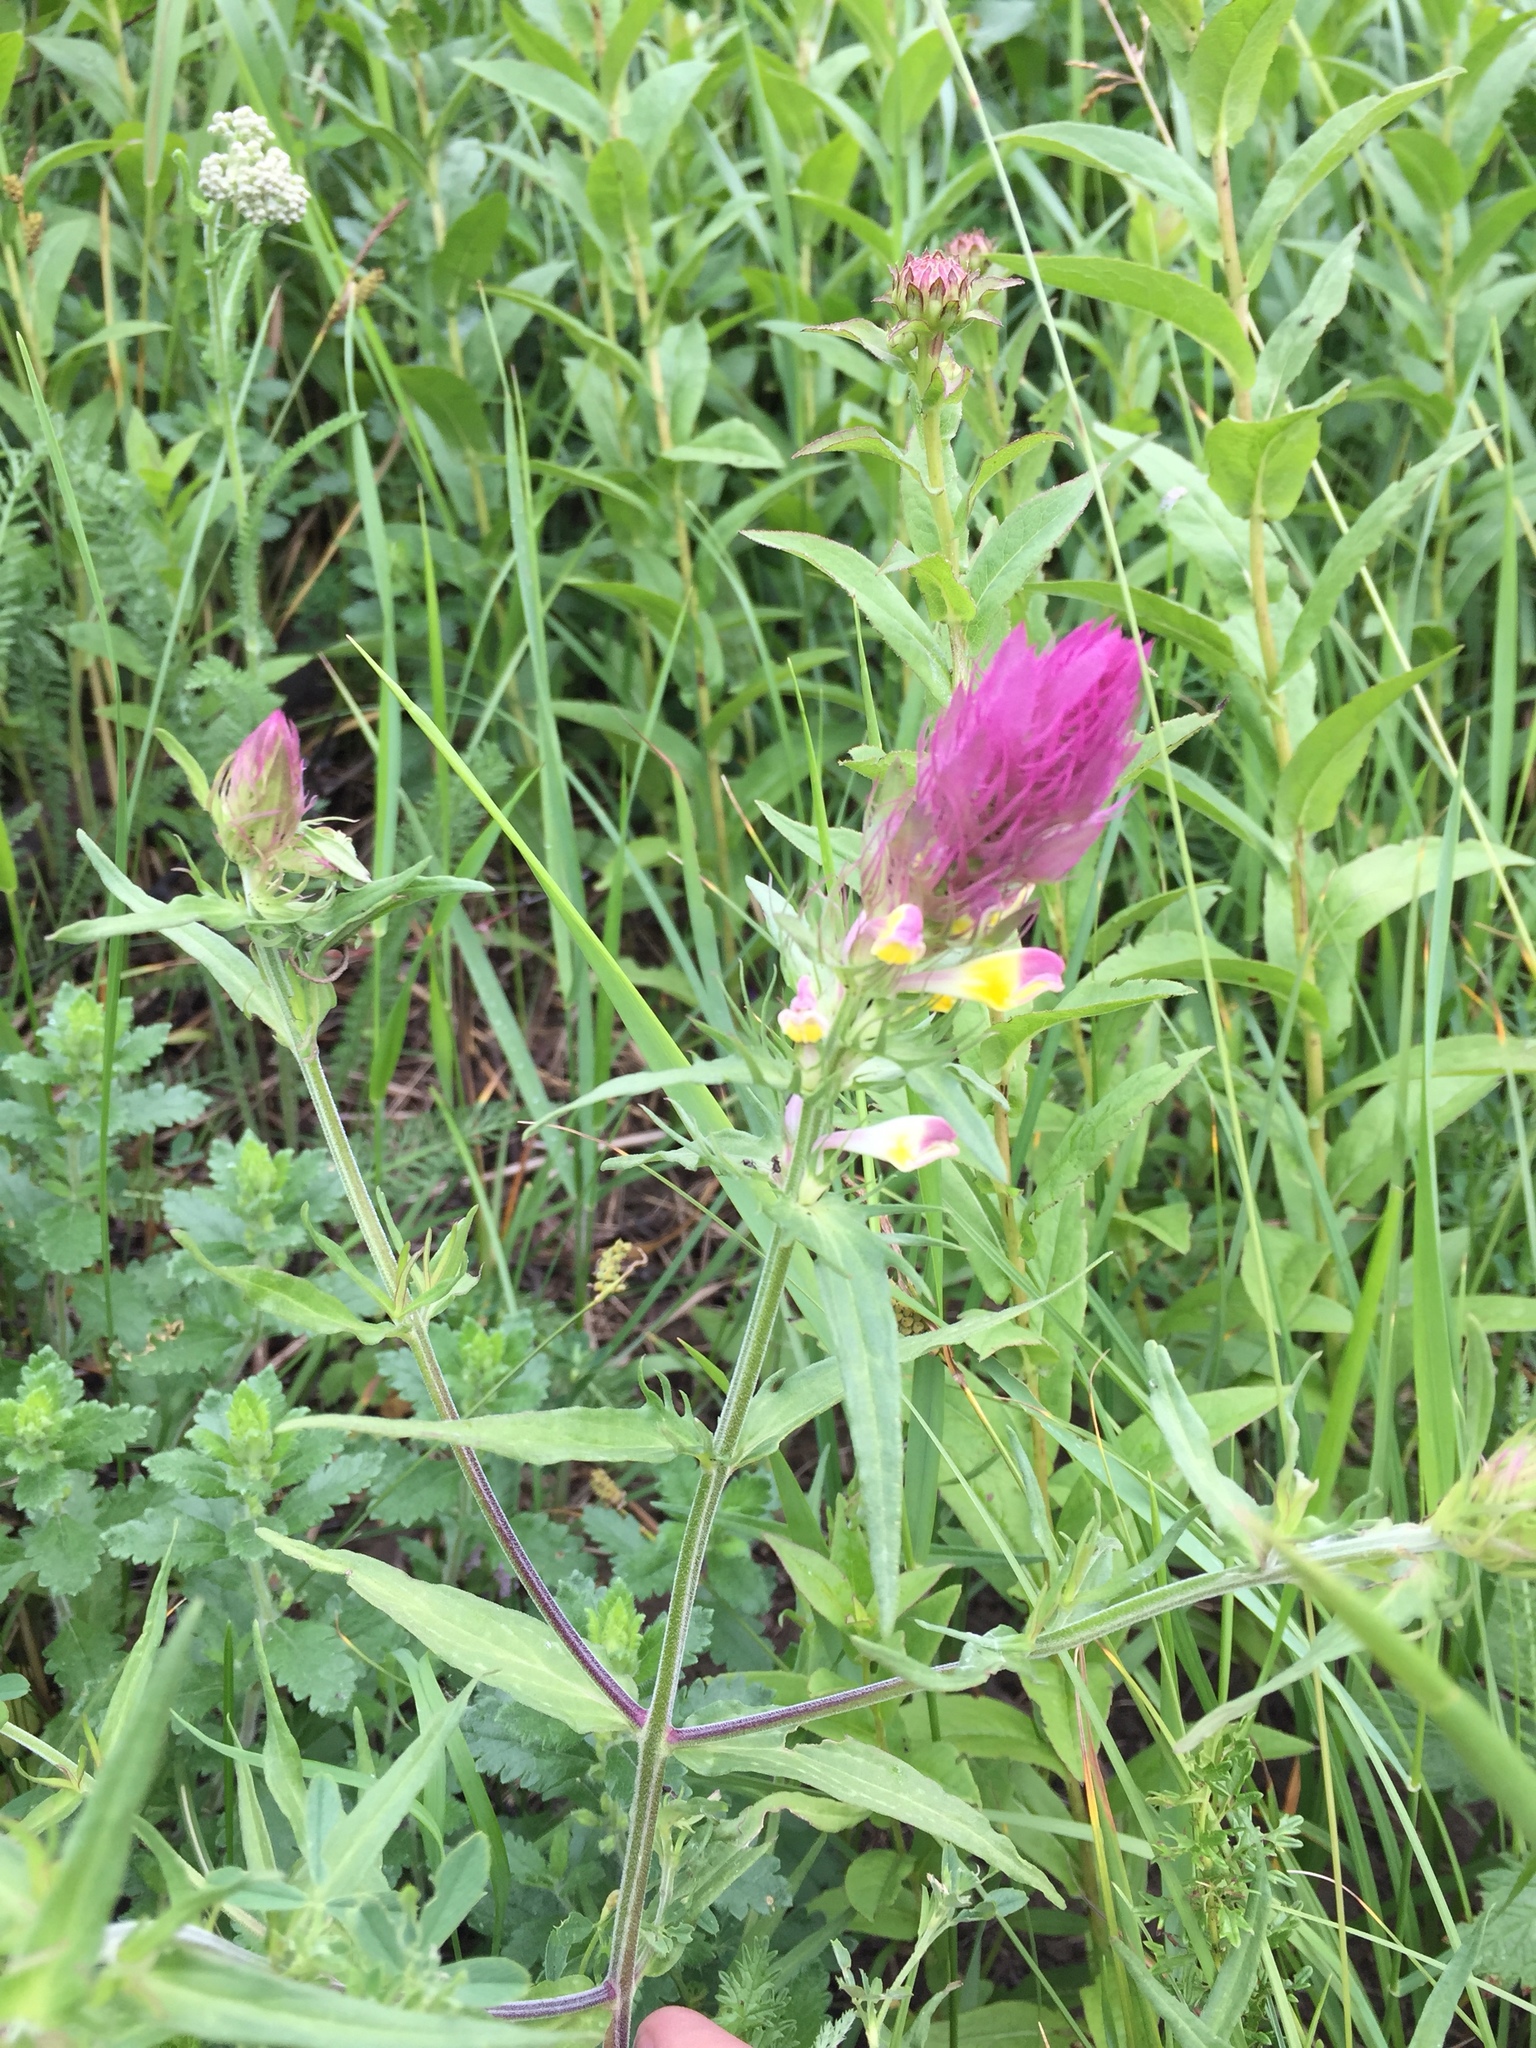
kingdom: Plantae
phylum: Tracheophyta
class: Magnoliopsida
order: Lamiales
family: Orobanchaceae
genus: Melampyrum
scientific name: Melampyrum arvense
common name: Field cow-wheat
